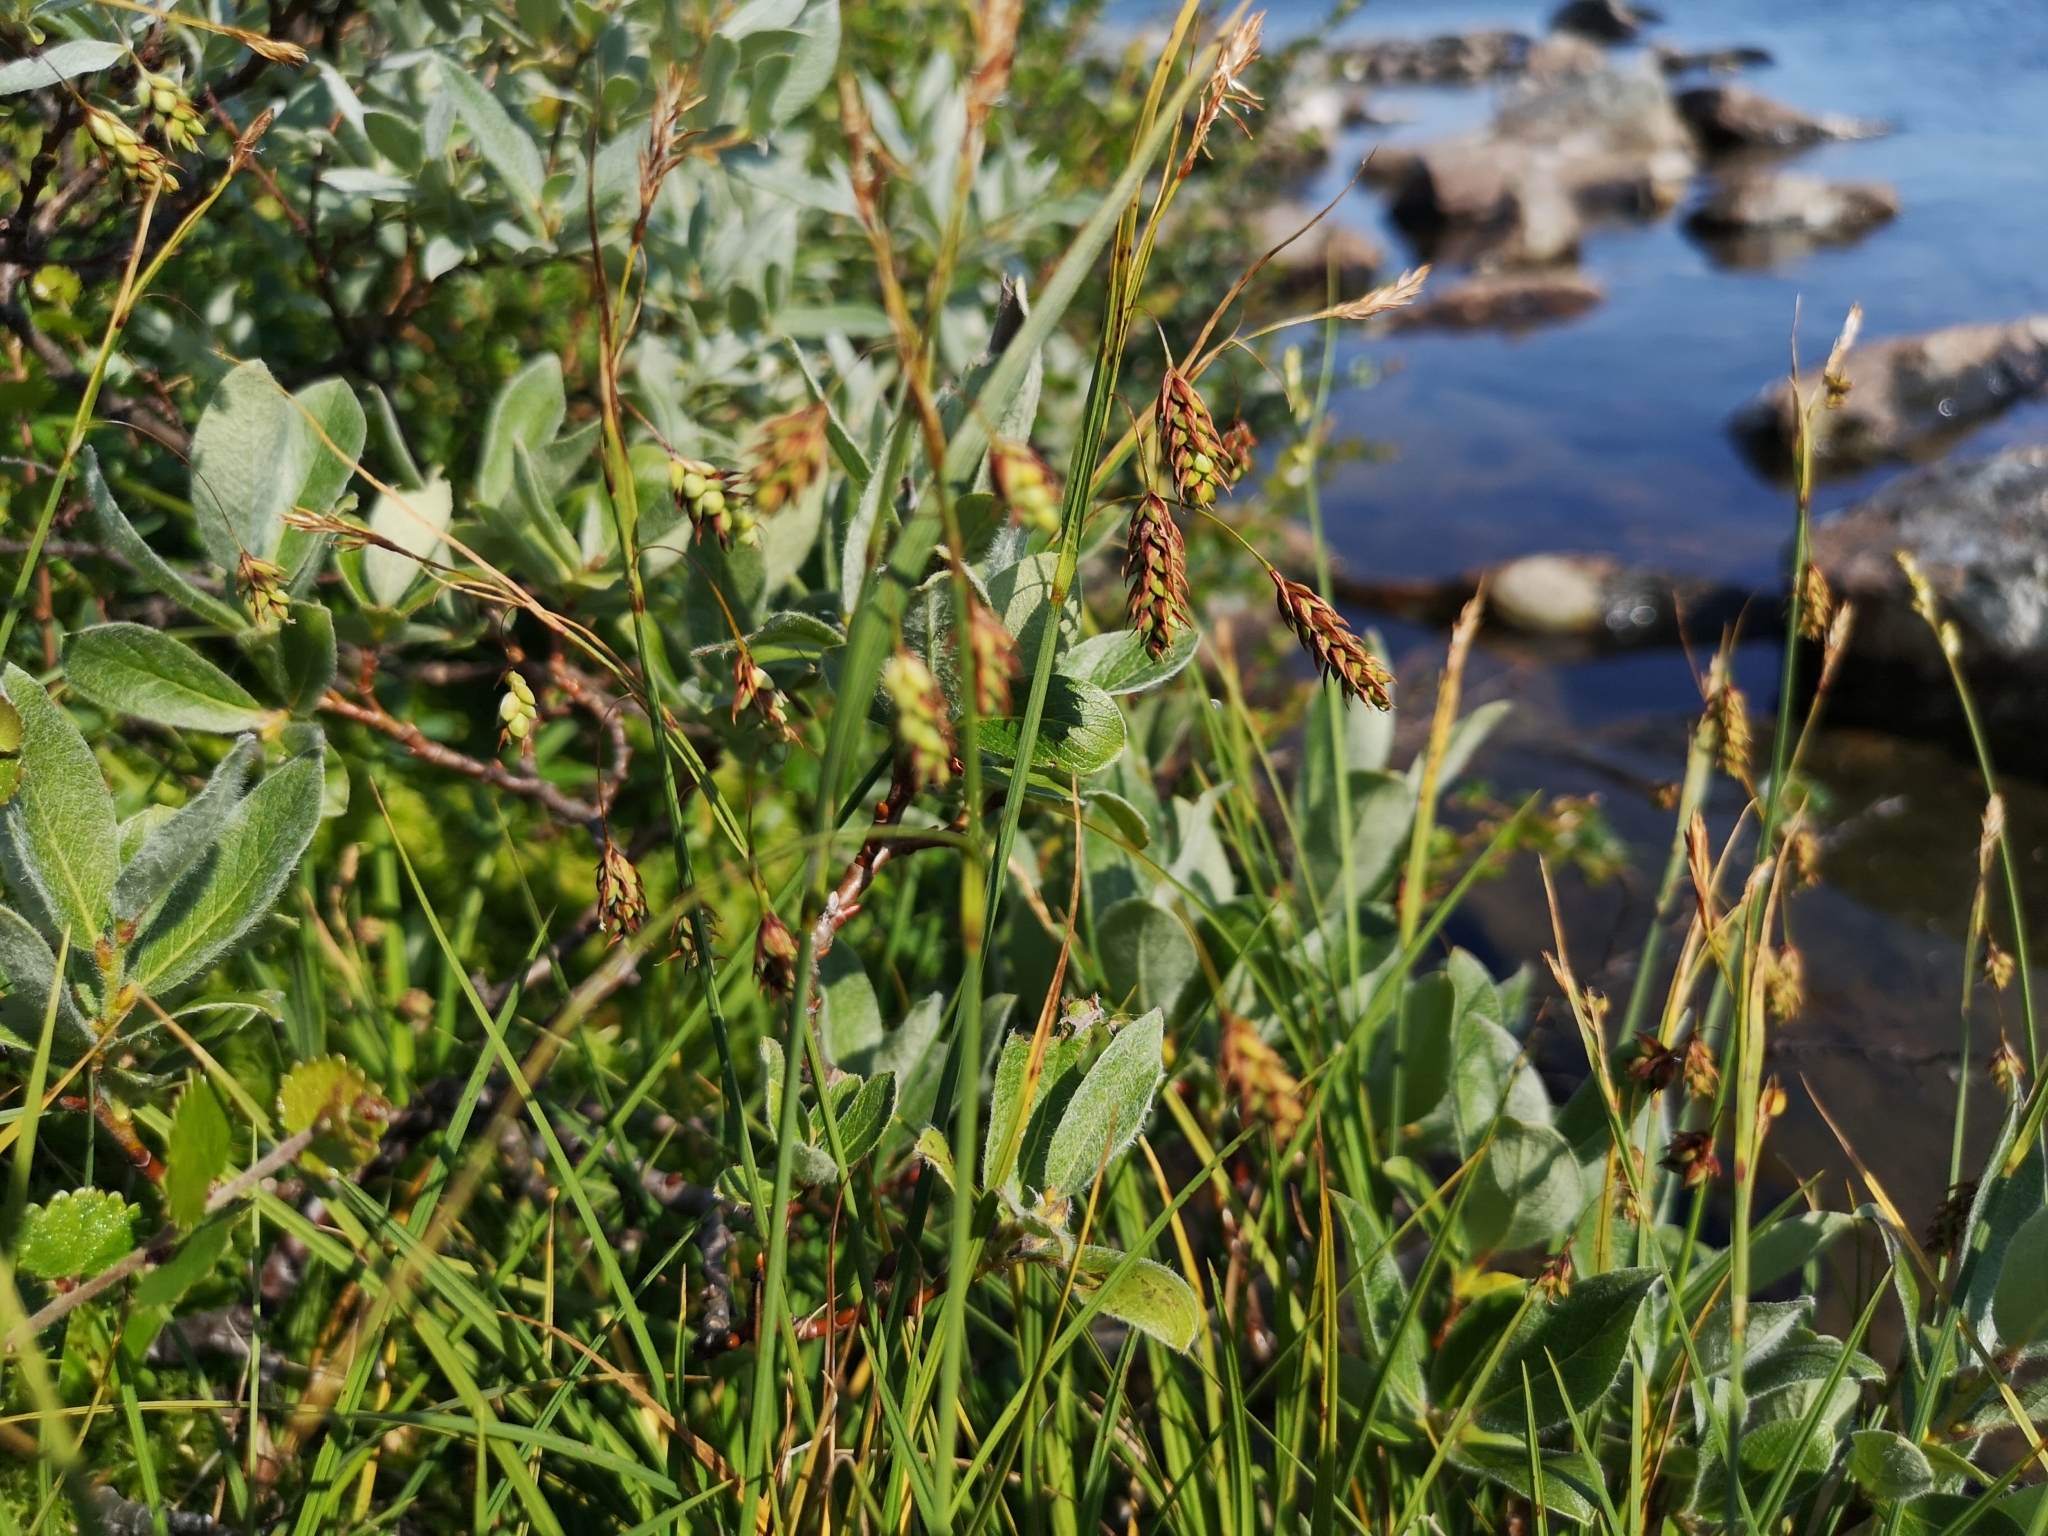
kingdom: Plantae
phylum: Tracheophyta
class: Liliopsida
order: Poales
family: Cyperaceae
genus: Carex
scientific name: Carex magellanica
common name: Bog sedge
